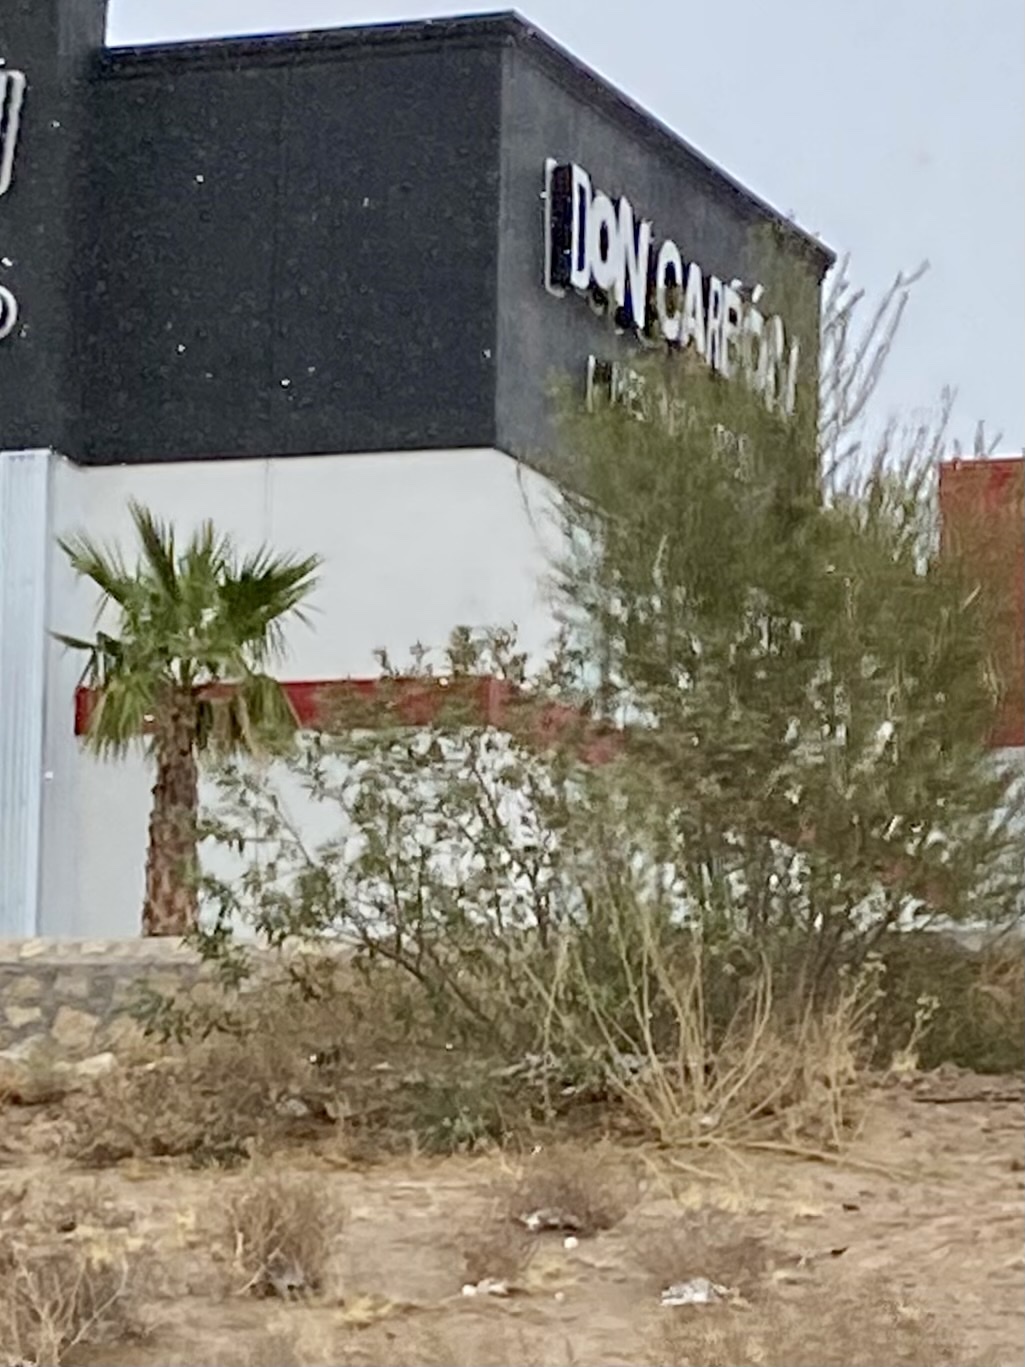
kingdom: Plantae
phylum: Tracheophyta
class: Magnoliopsida
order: Zygophyllales
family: Zygophyllaceae
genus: Larrea
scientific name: Larrea tridentata
